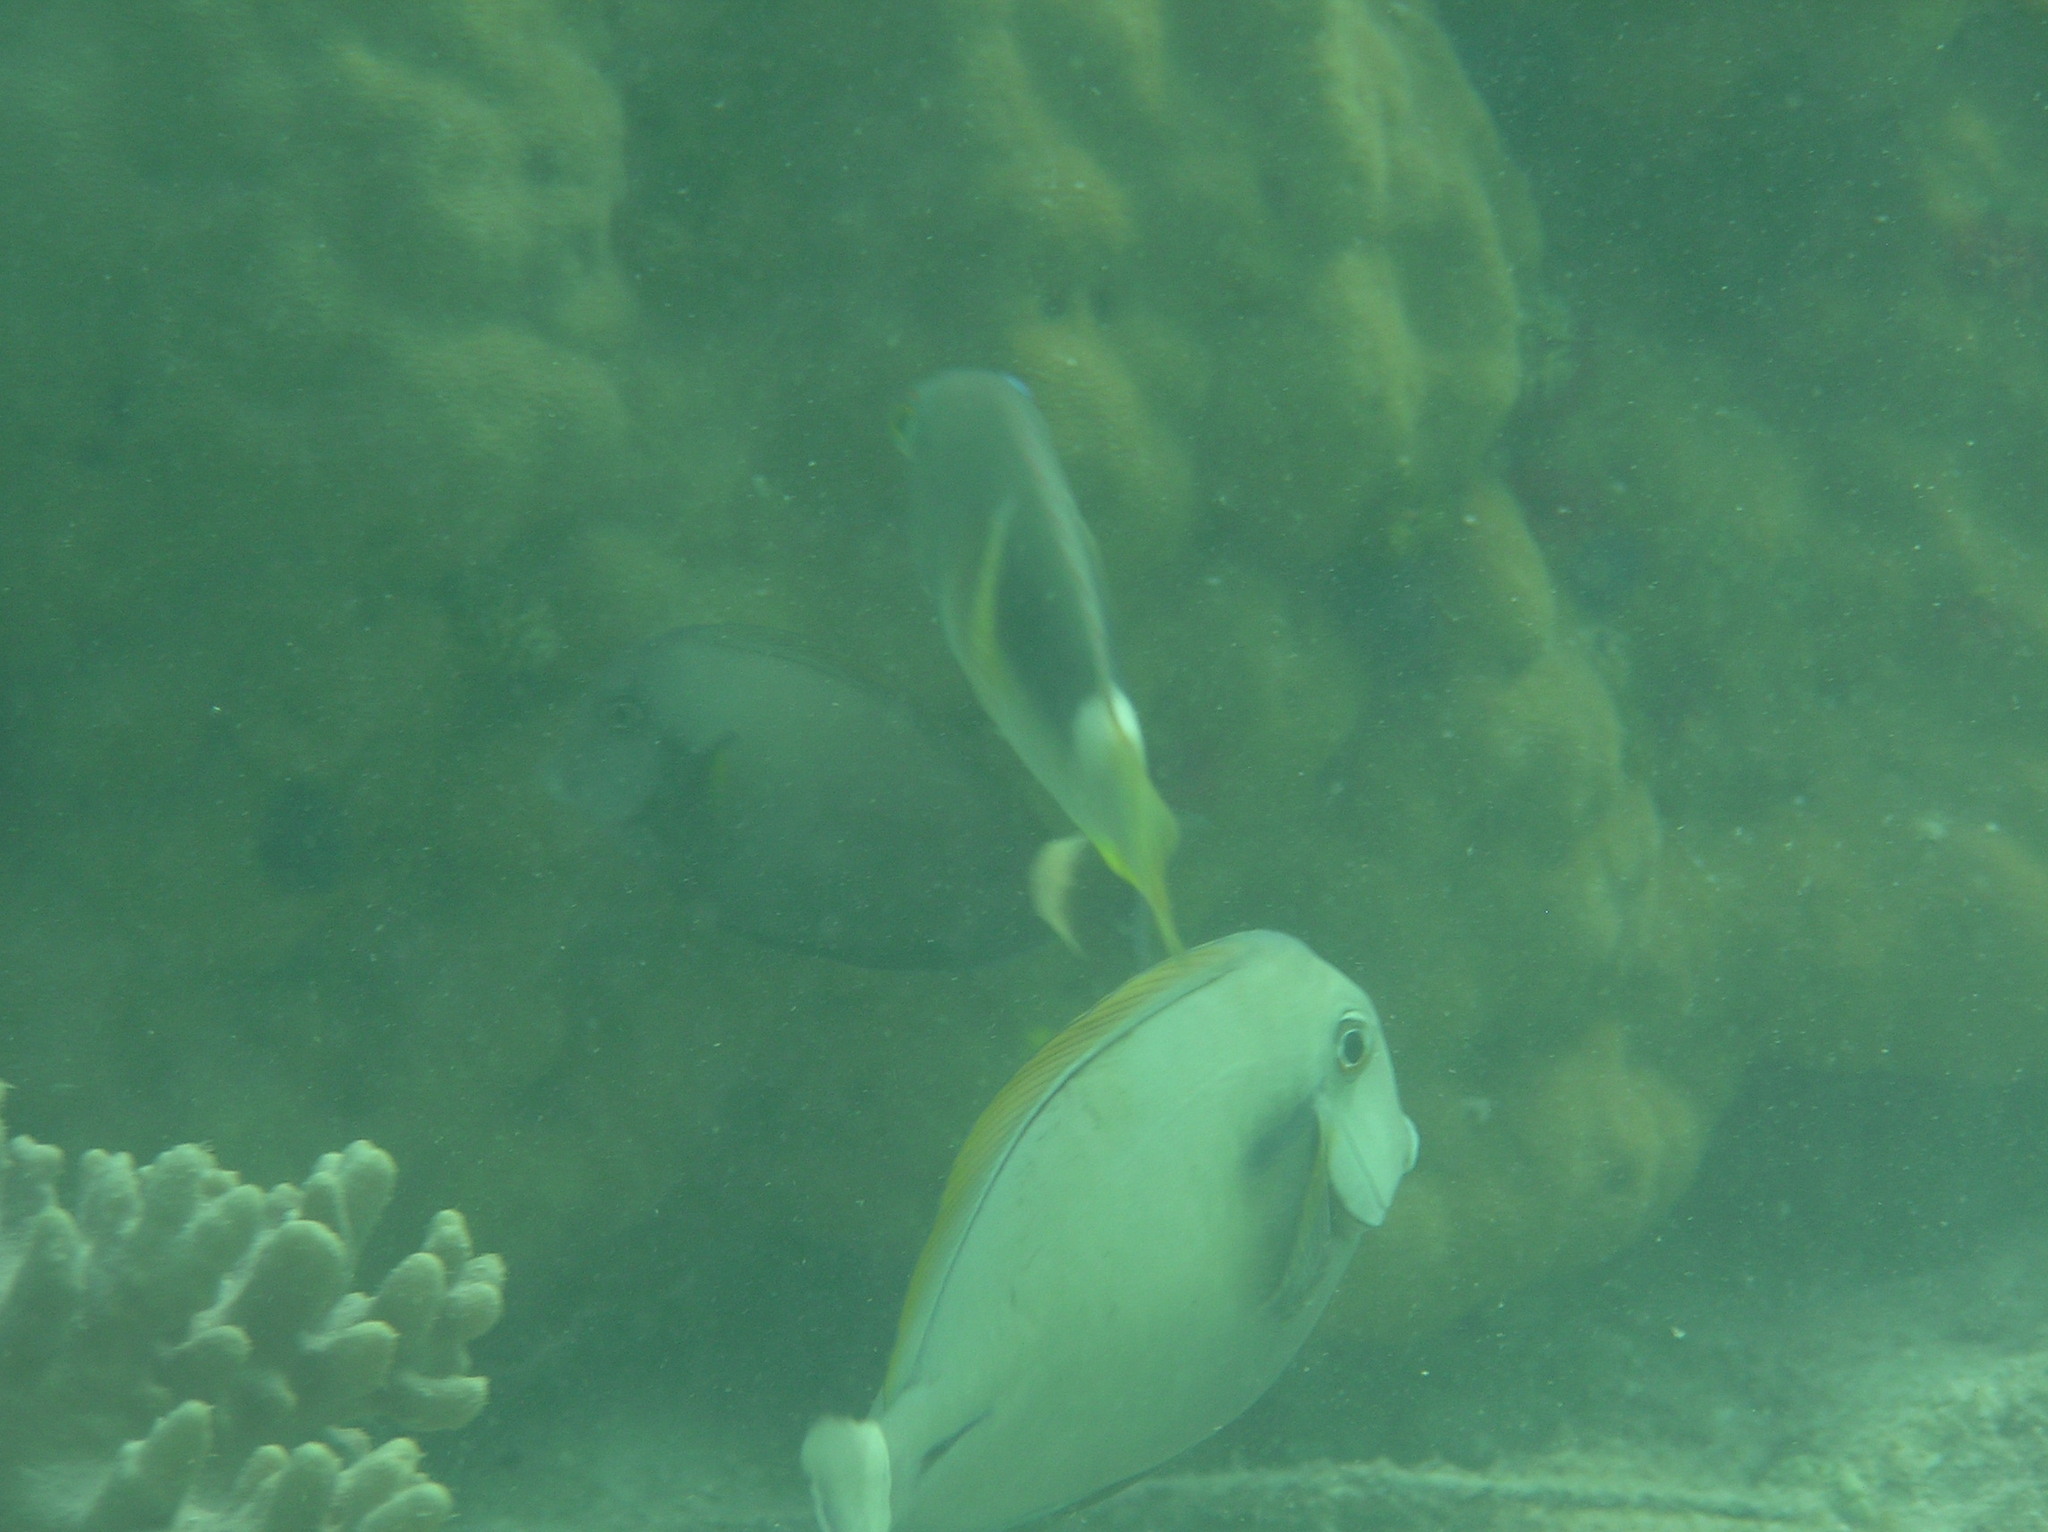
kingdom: Animalia
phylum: Chordata
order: Perciformes
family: Labridae
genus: Choerodon
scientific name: Choerodon anchorago
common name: Anchor tuskfish
